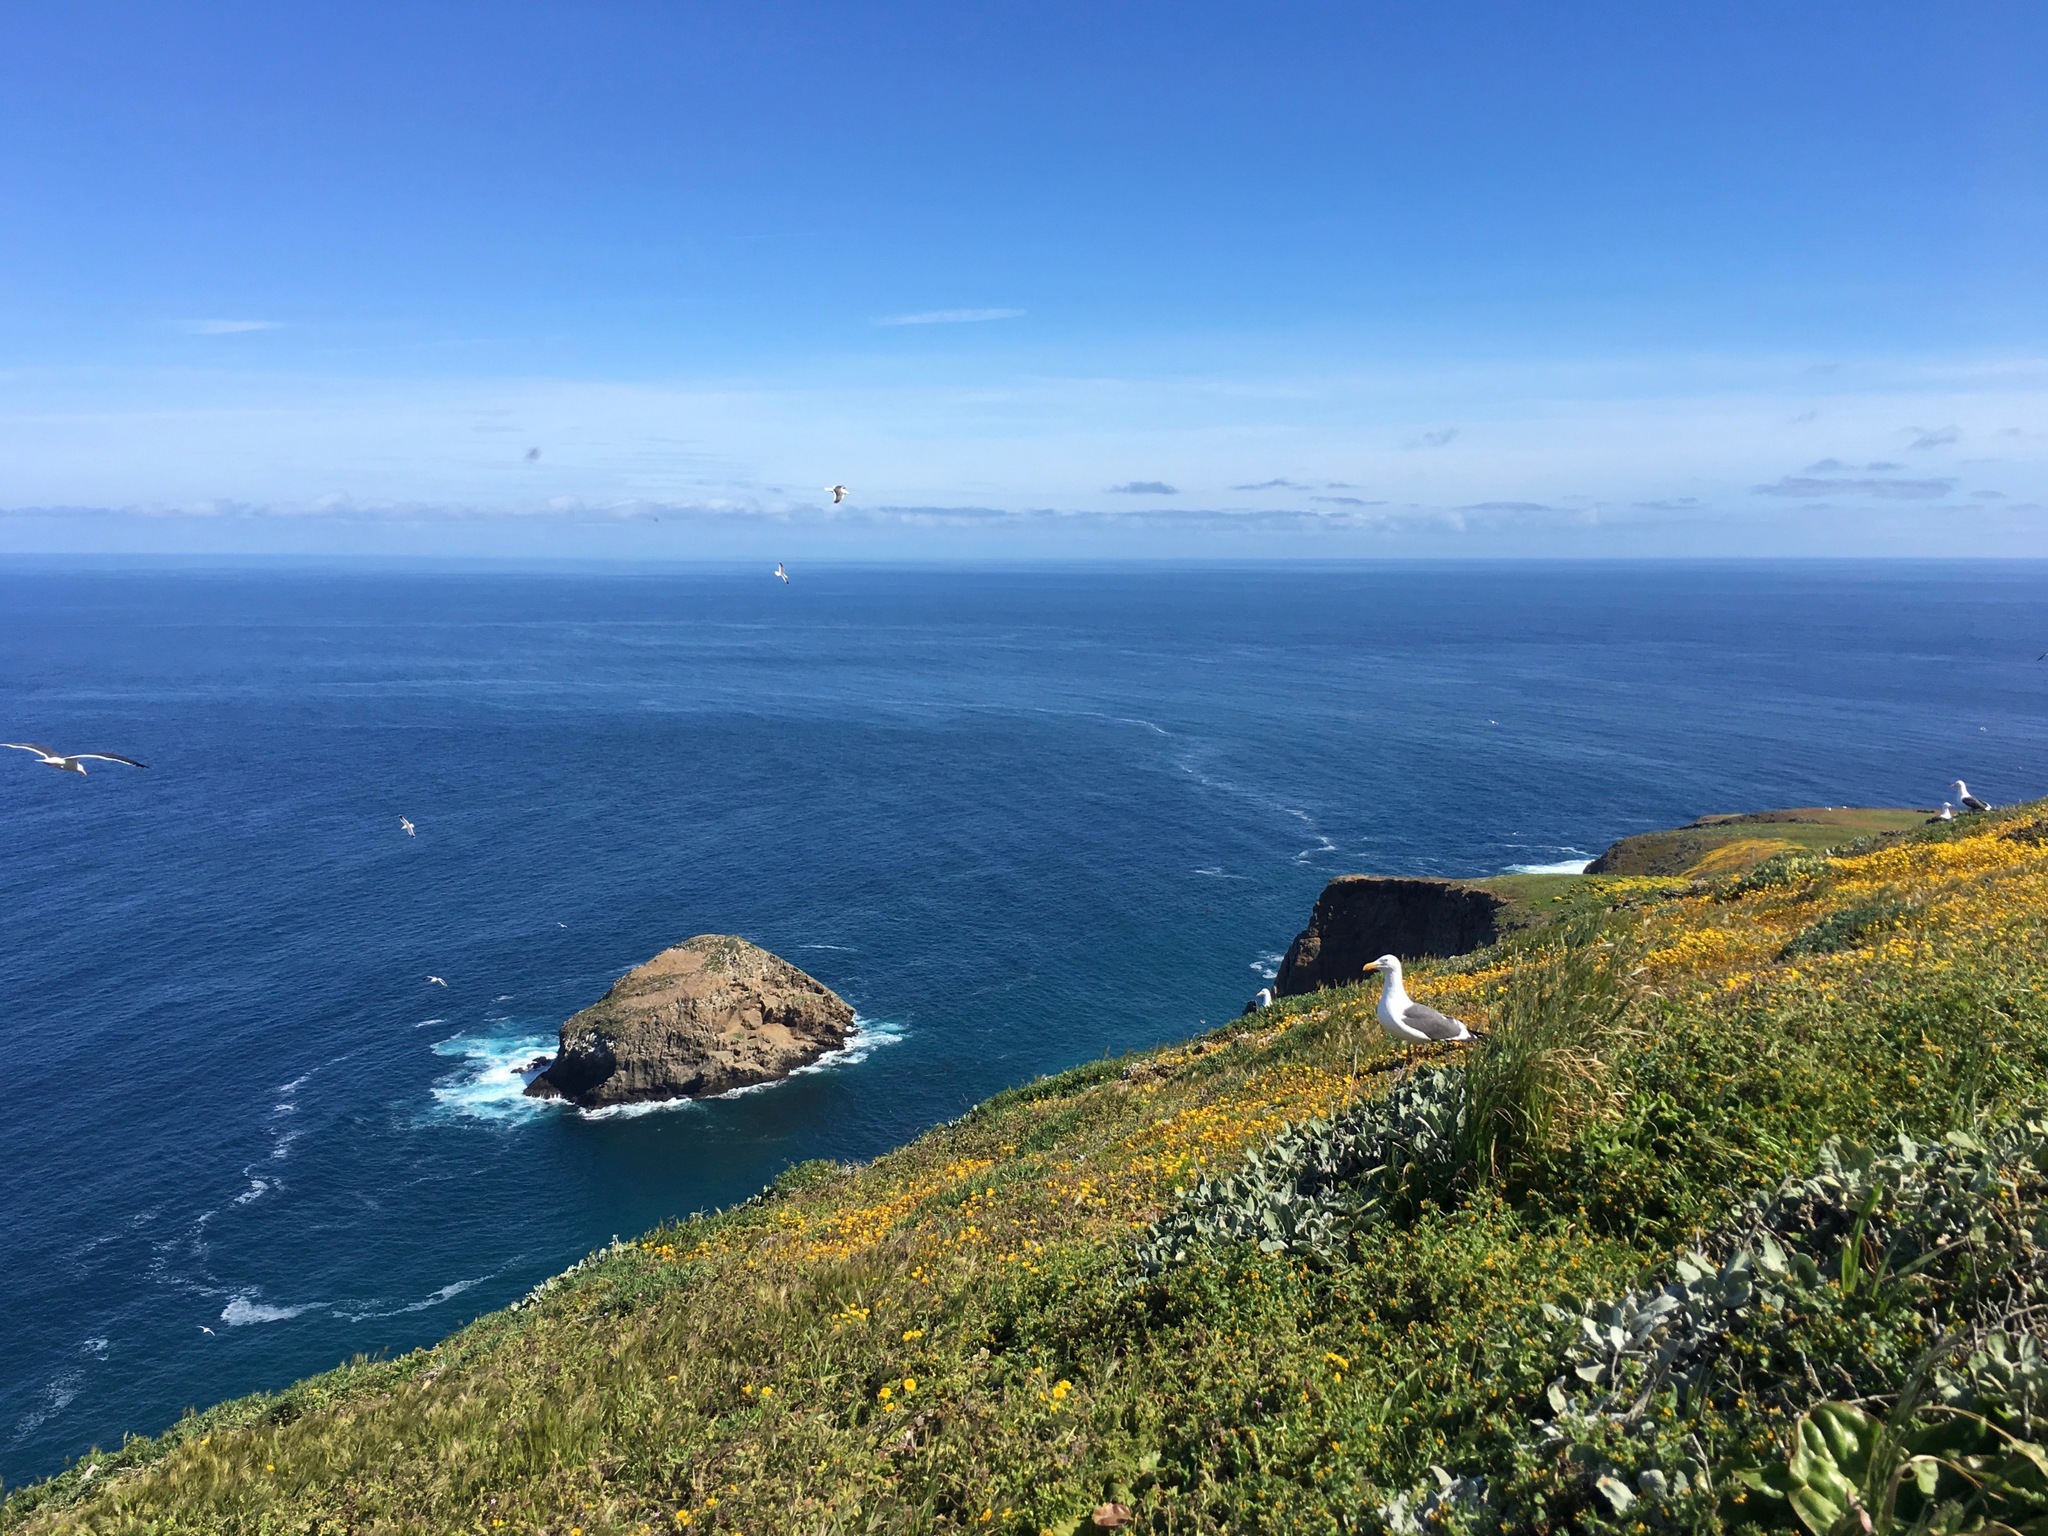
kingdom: Animalia
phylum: Chordata
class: Aves
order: Charadriiformes
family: Laridae
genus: Larus
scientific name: Larus occidentalis
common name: Western gull
